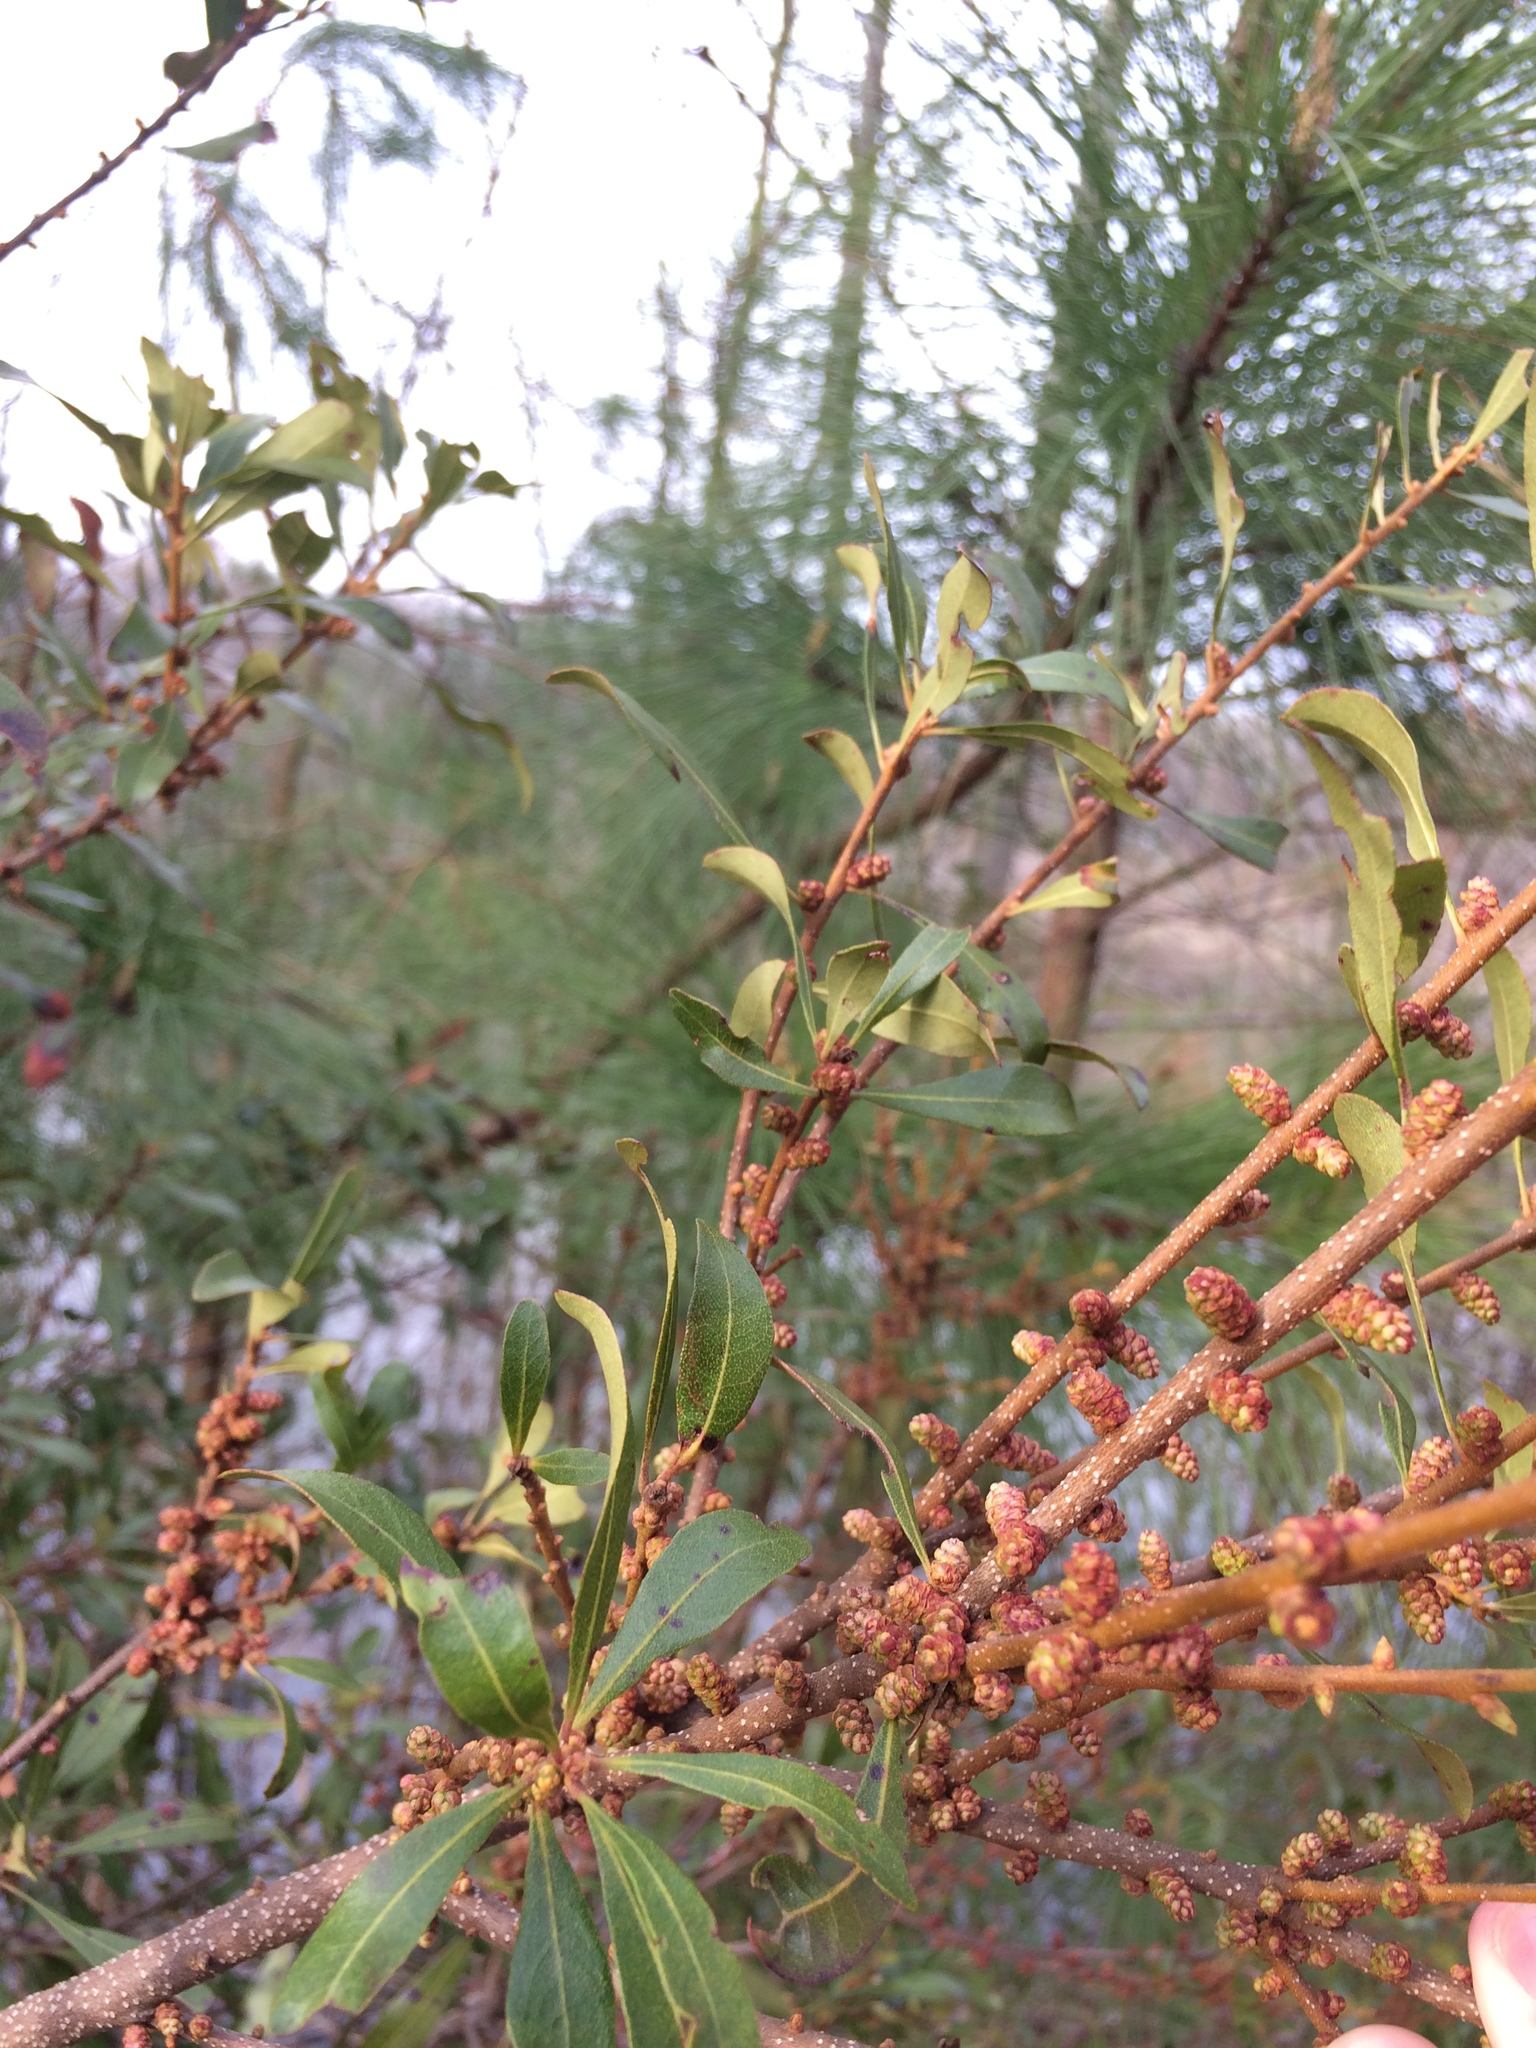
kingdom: Plantae
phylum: Tracheophyta
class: Magnoliopsida
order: Fagales
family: Myricaceae
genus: Morella
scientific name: Morella cerifera
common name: Wax myrtle
